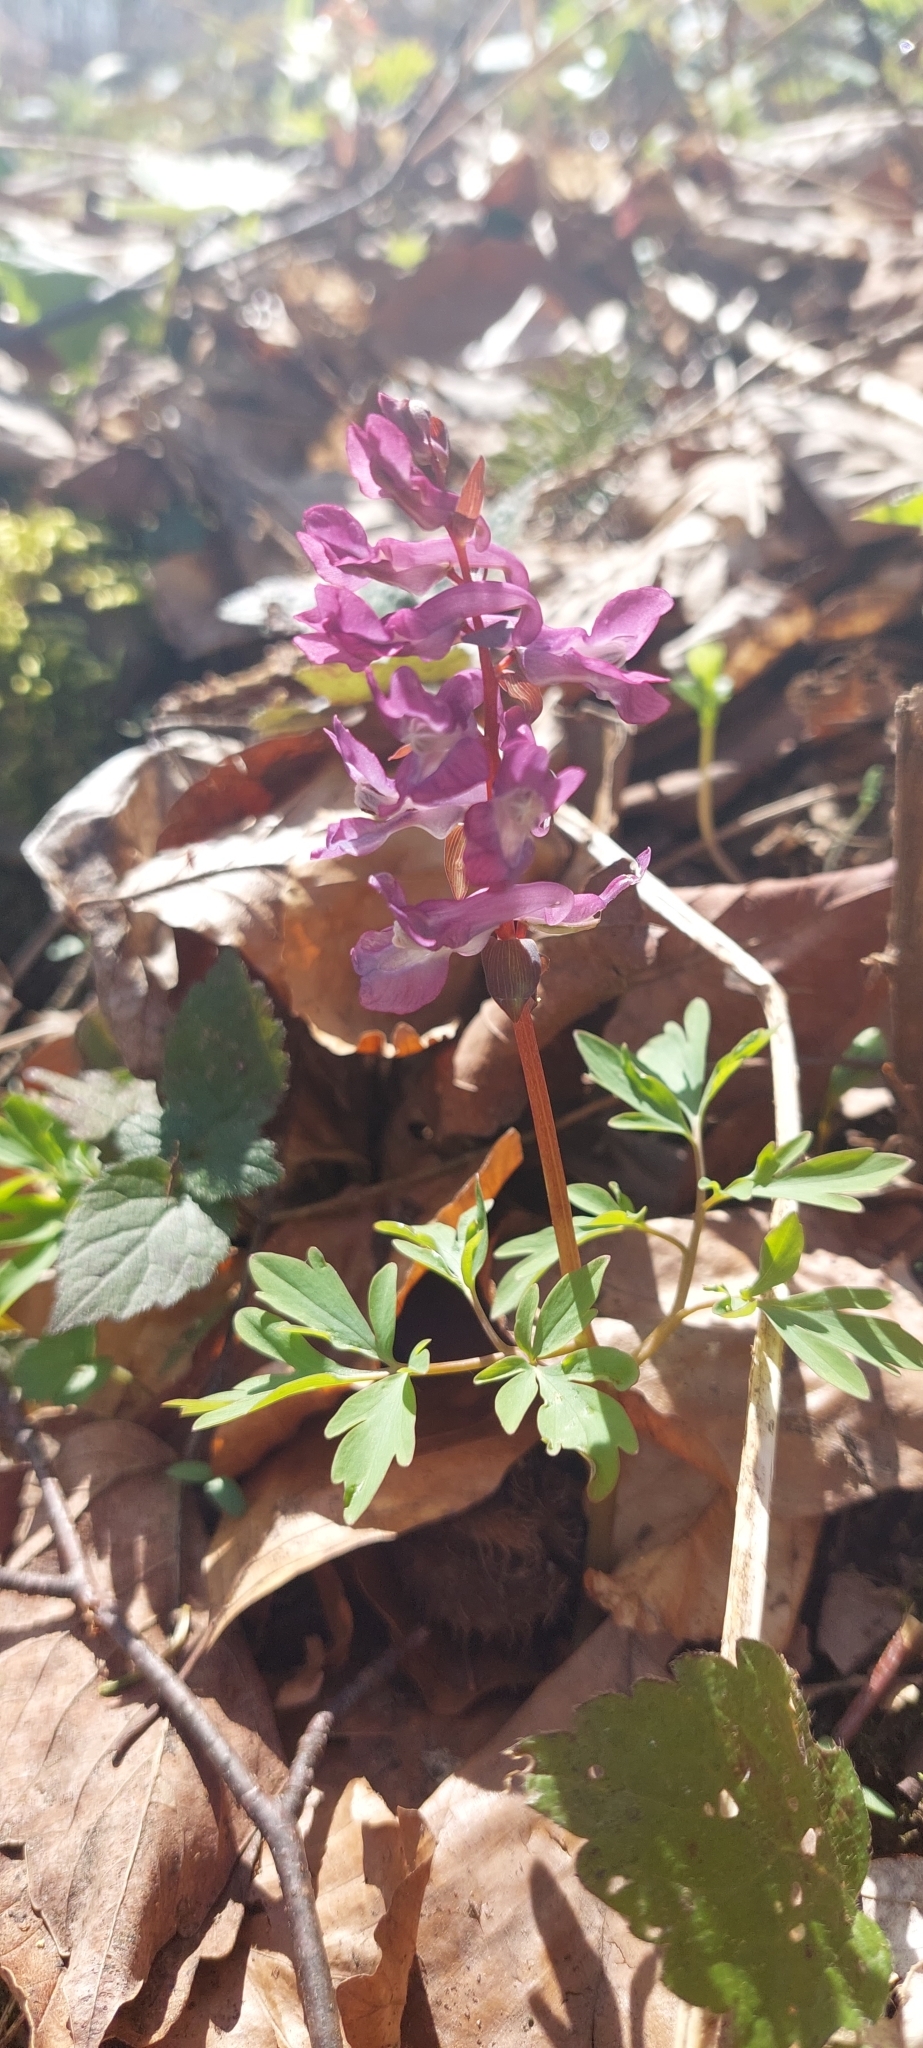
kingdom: Plantae
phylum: Tracheophyta
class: Magnoliopsida
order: Ranunculales
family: Papaveraceae
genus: Corydalis
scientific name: Corydalis cava
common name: Hollowroot
